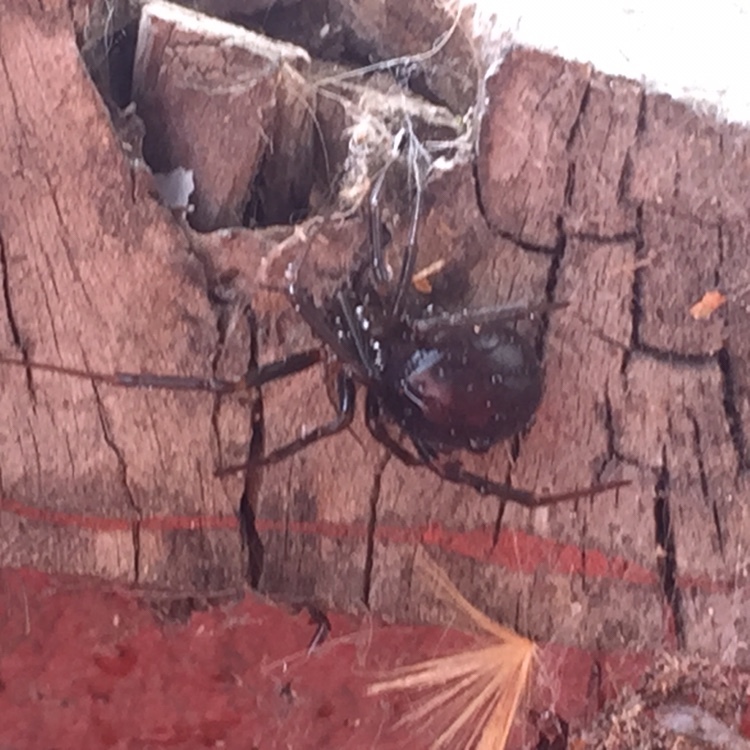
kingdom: Animalia
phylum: Arthropoda
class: Arachnida
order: Araneae
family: Theridiidae
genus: Steatoda
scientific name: Steatoda grossa
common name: False black widow
